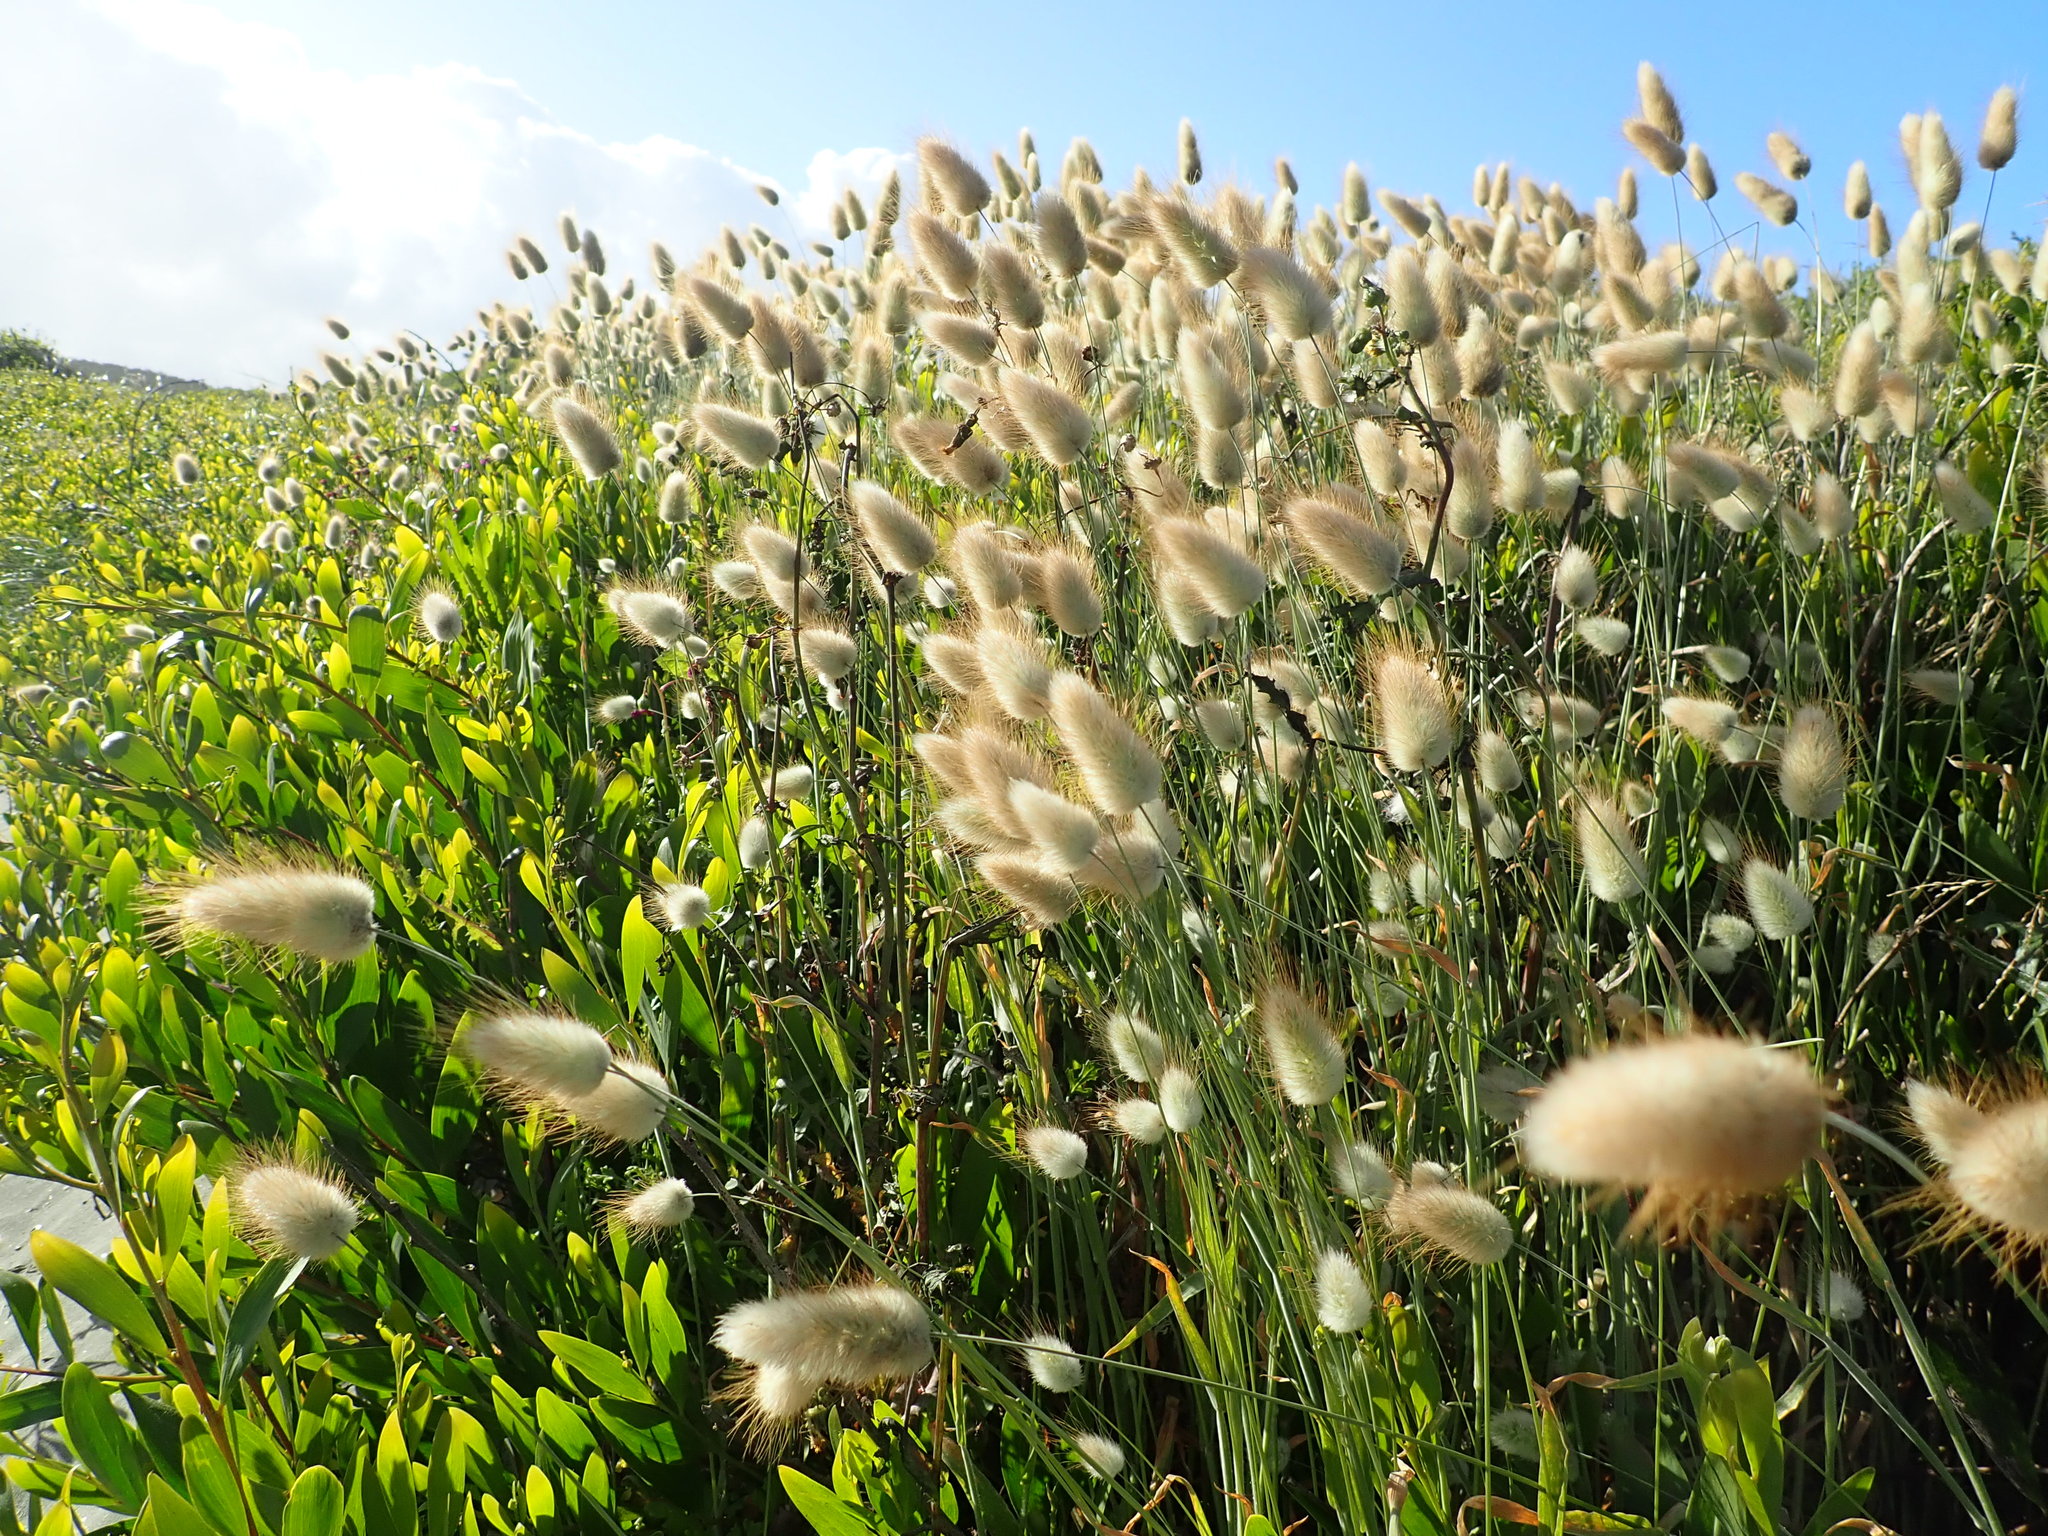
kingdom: Plantae
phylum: Tracheophyta
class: Liliopsida
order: Poales
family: Poaceae
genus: Lagurus
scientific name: Lagurus ovatus
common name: Hare's-tail
